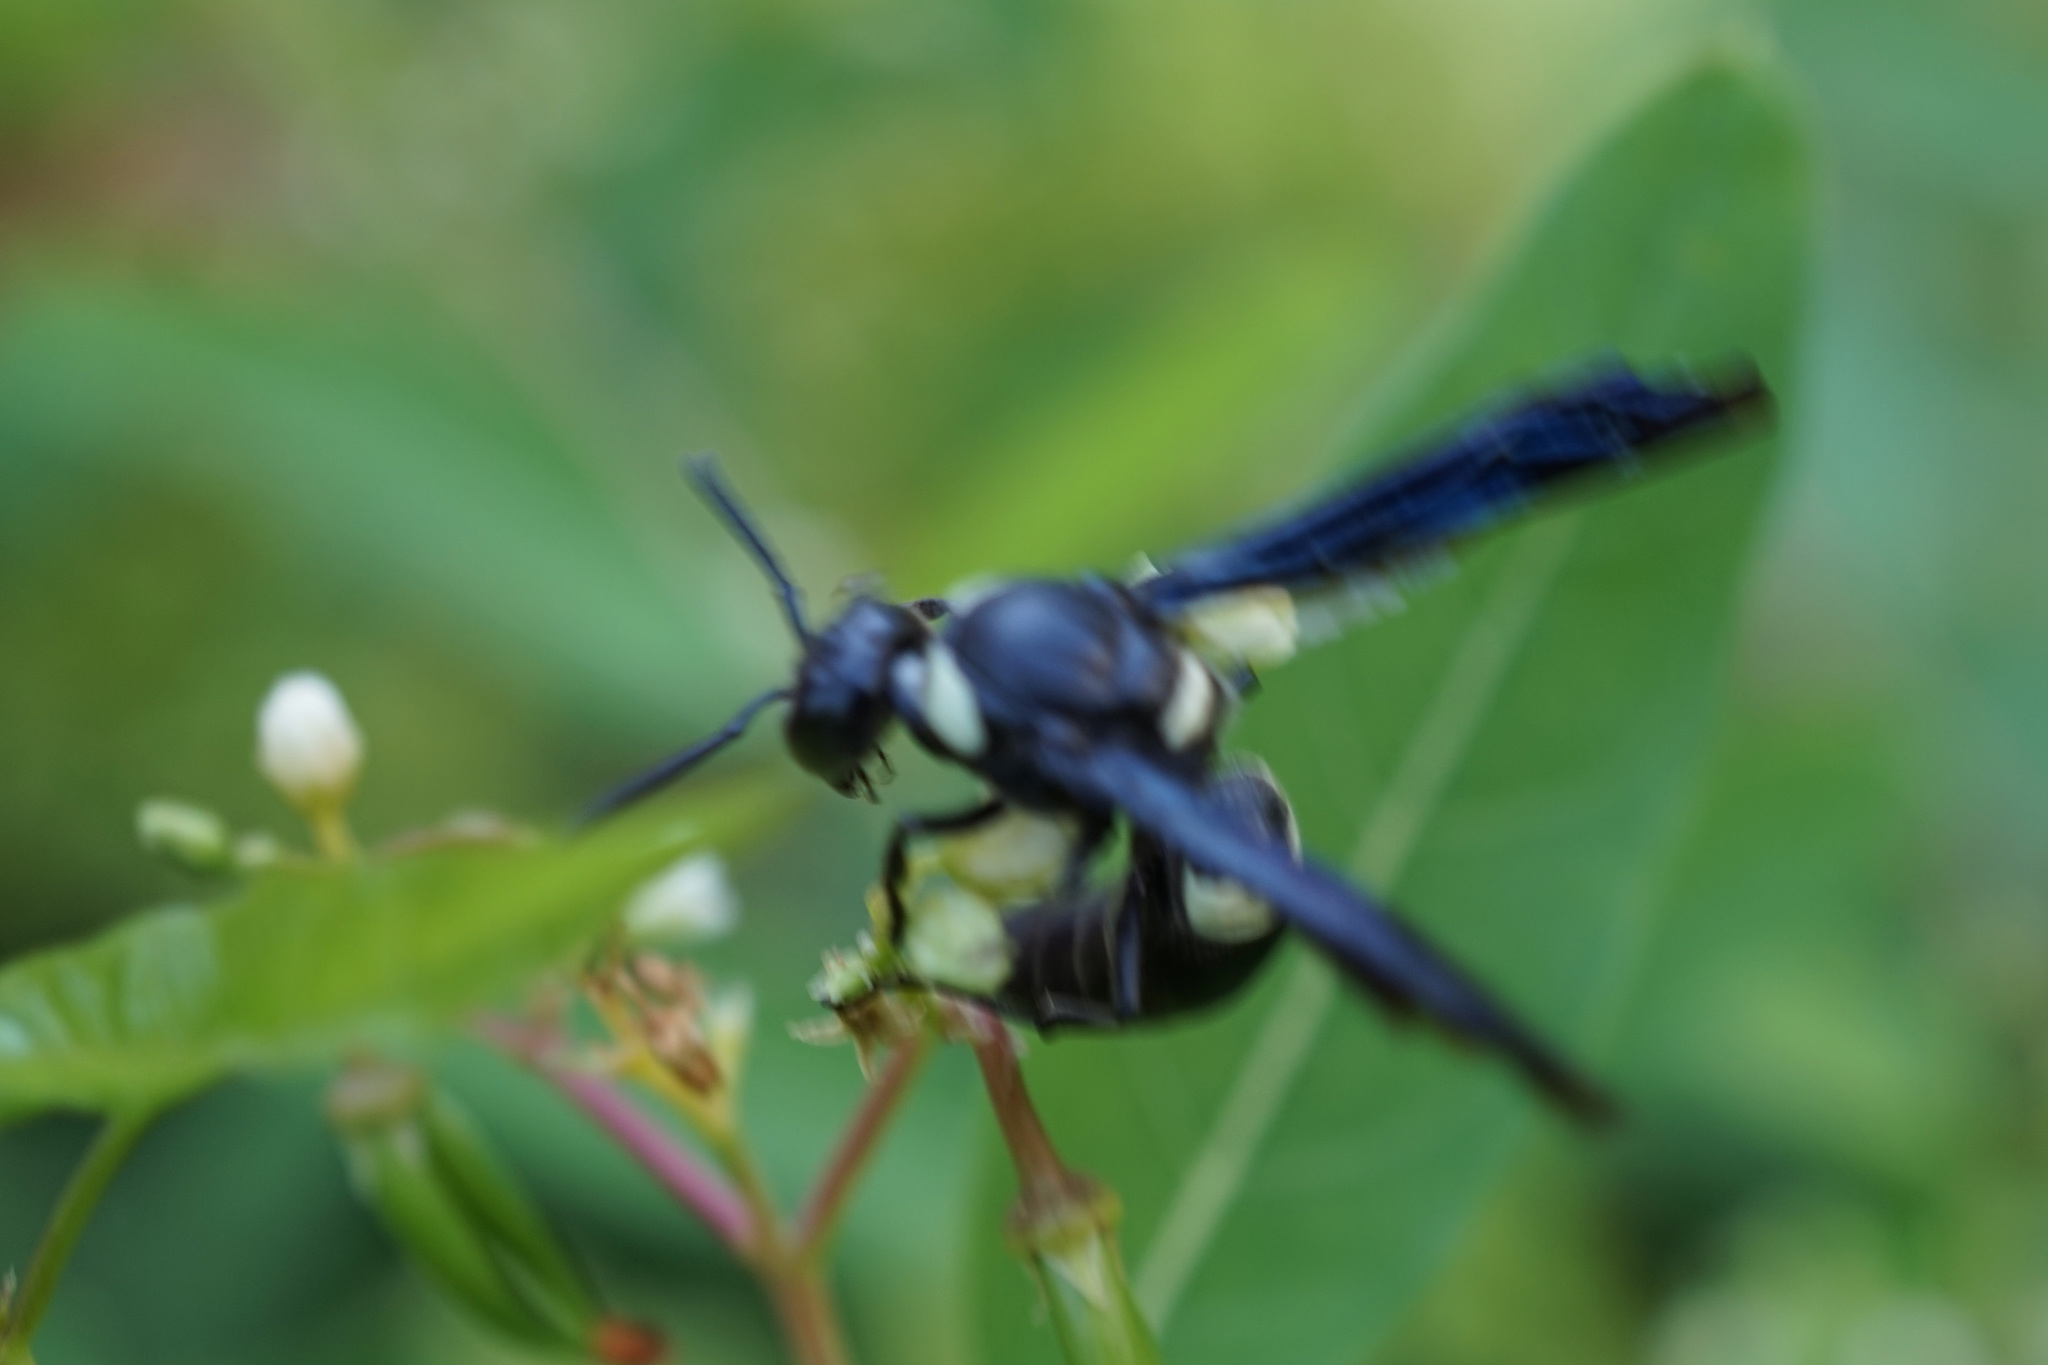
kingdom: Animalia
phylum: Arthropoda
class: Insecta
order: Hymenoptera
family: Eumenidae
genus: Monobia
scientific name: Monobia quadridens
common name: Four-toothed mason wasp
